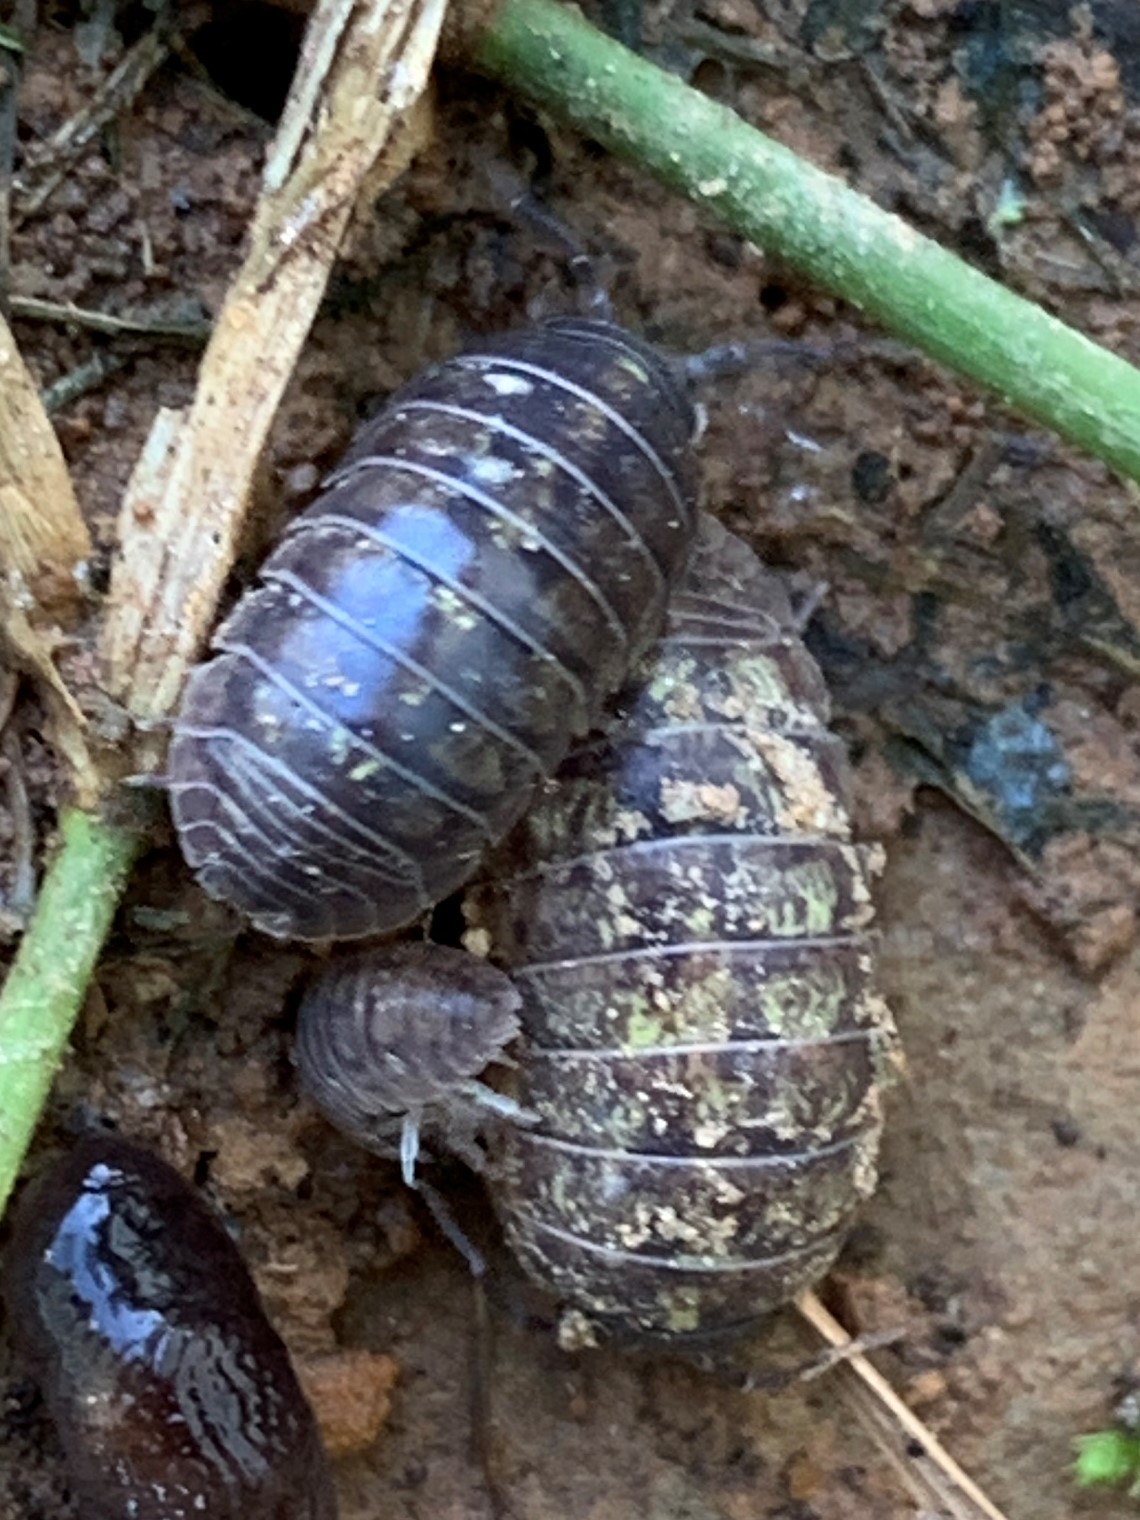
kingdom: Animalia
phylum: Arthropoda
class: Malacostraca
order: Isopoda
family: Armadillidiidae
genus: Armadillidium
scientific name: Armadillidium vulgare
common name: Common pill woodlouse
